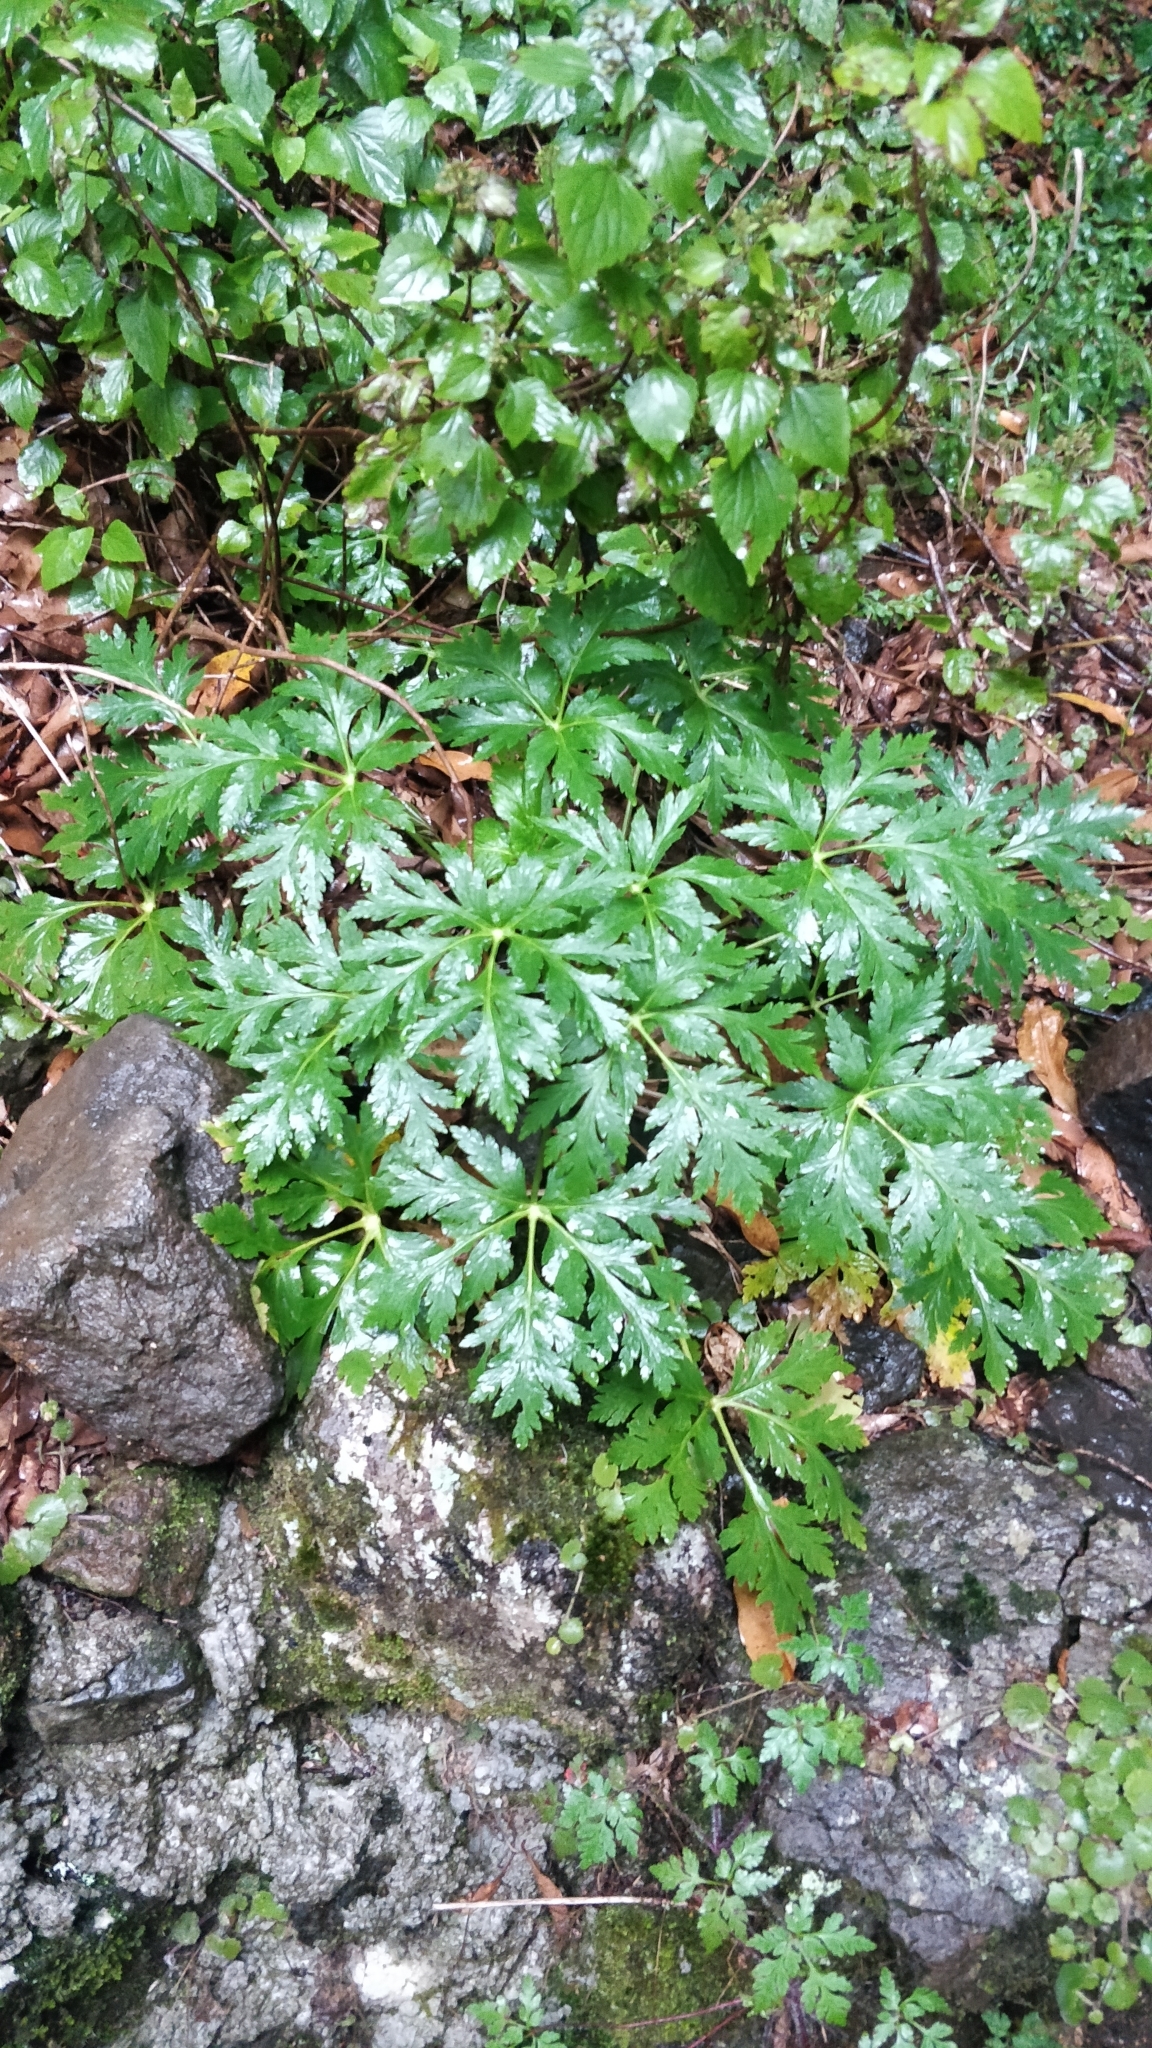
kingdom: Plantae
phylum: Tracheophyta
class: Magnoliopsida
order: Geraniales
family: Geraniaceae
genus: Geranium
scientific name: Geranium palmatum
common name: Canary island geranium
